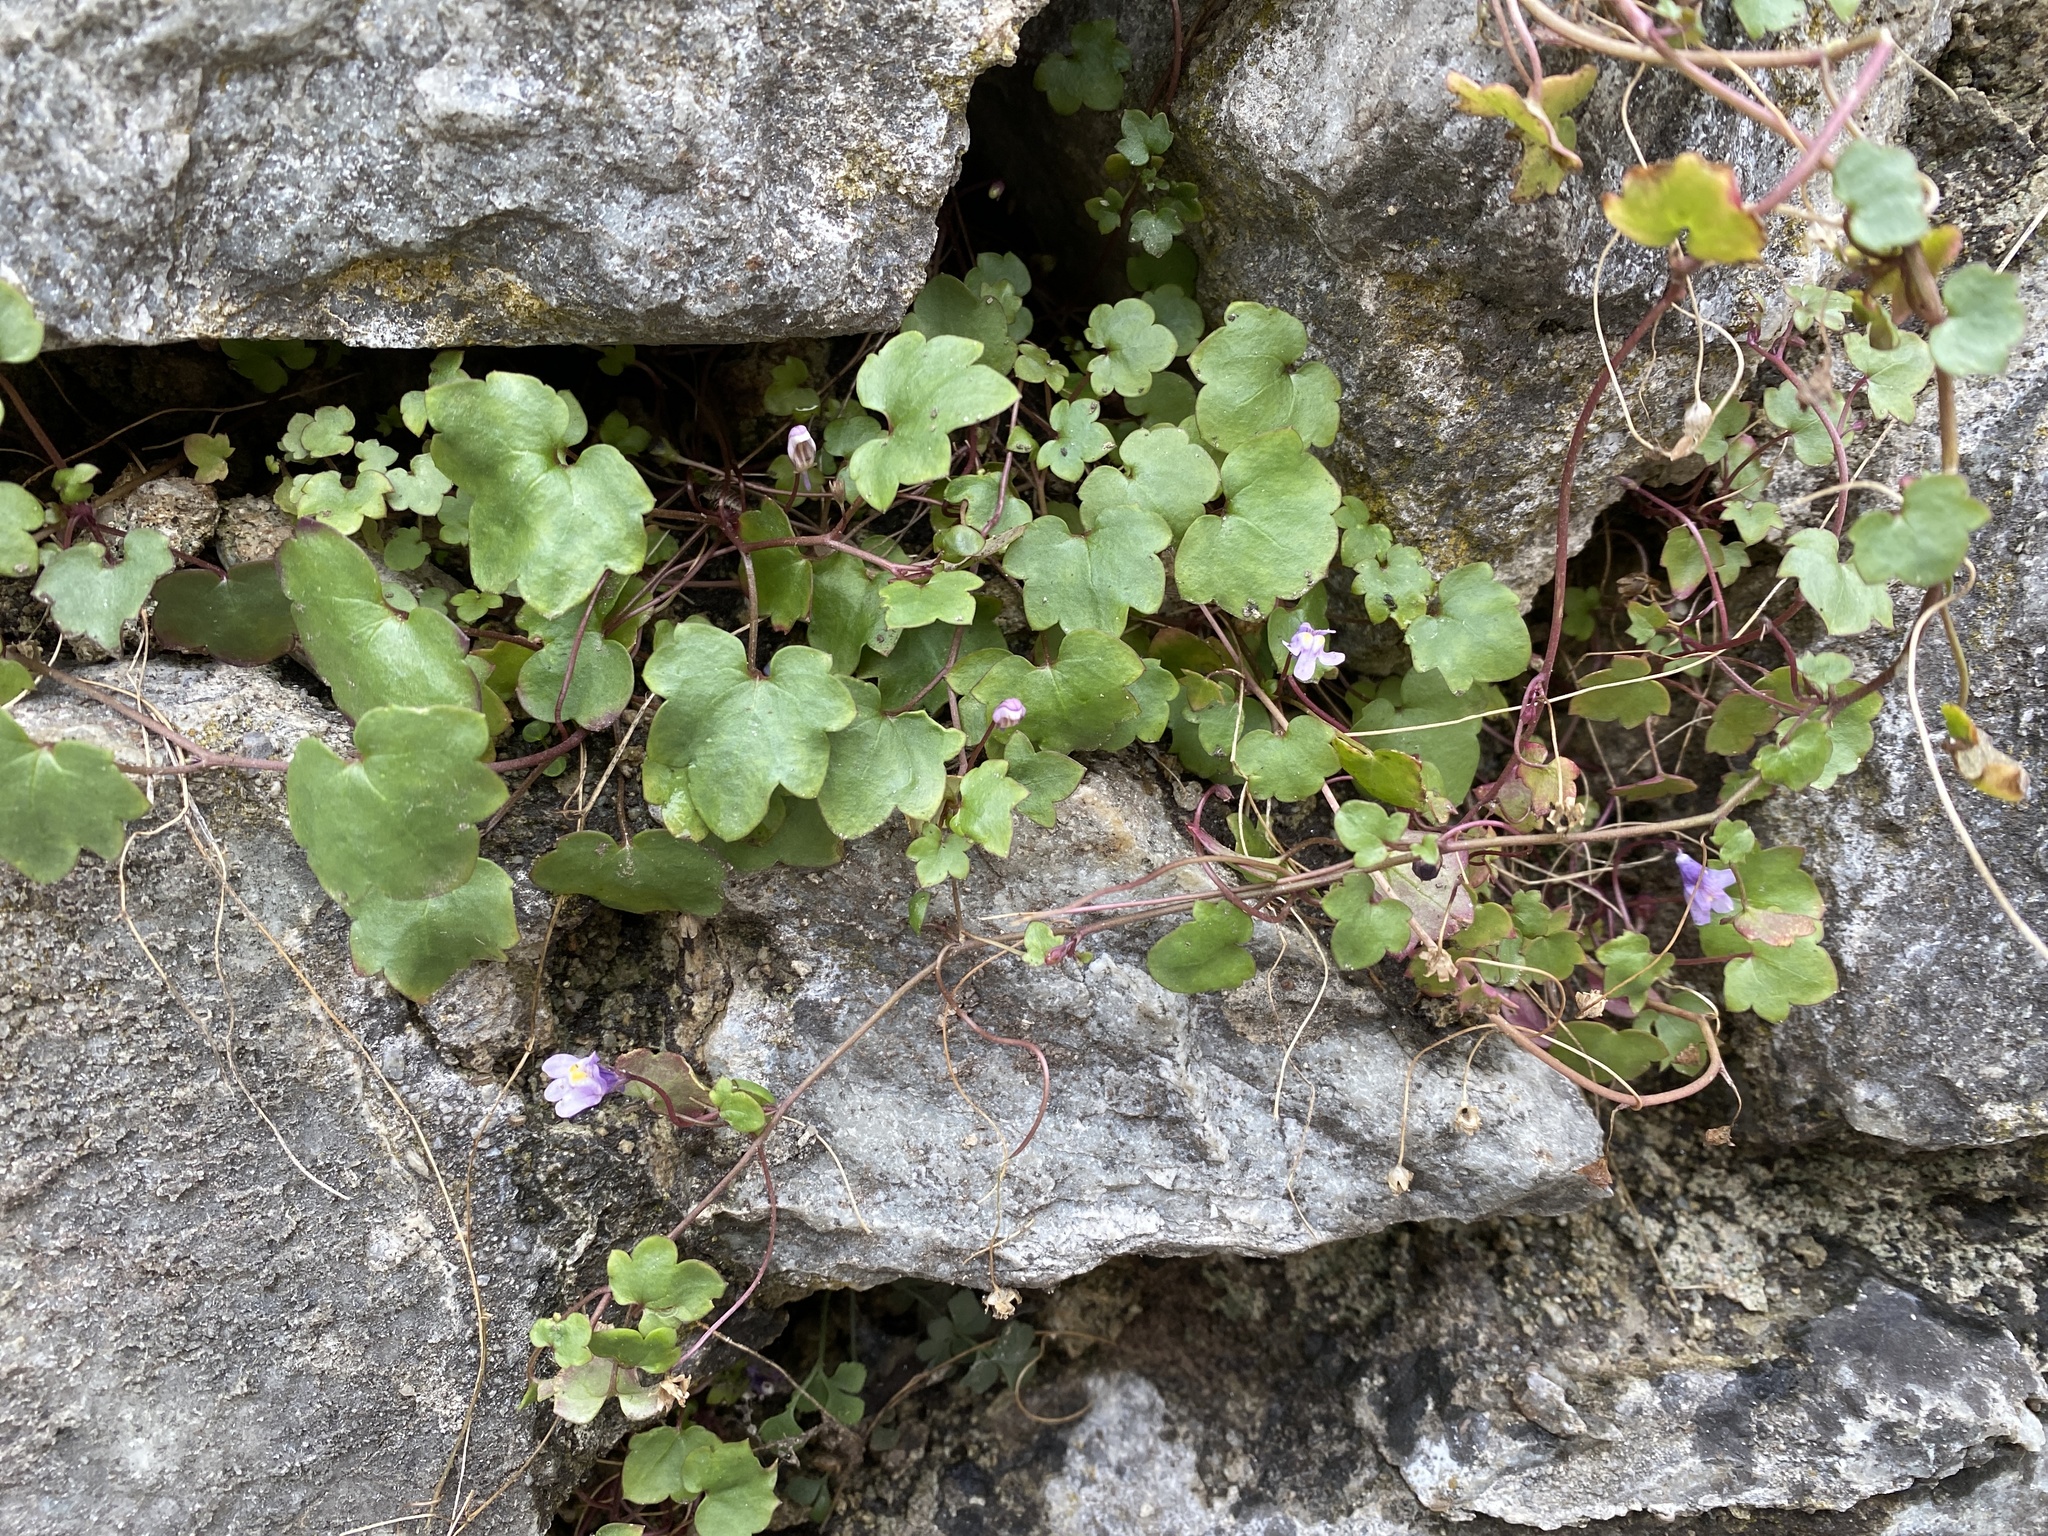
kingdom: Plantae
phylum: Tracheophyta
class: Magnoliopsida
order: Lamiales
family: Plantaginaceae
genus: Cymbalaria
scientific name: Cymbalaria muralis
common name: Ivy-leaved toadflax
